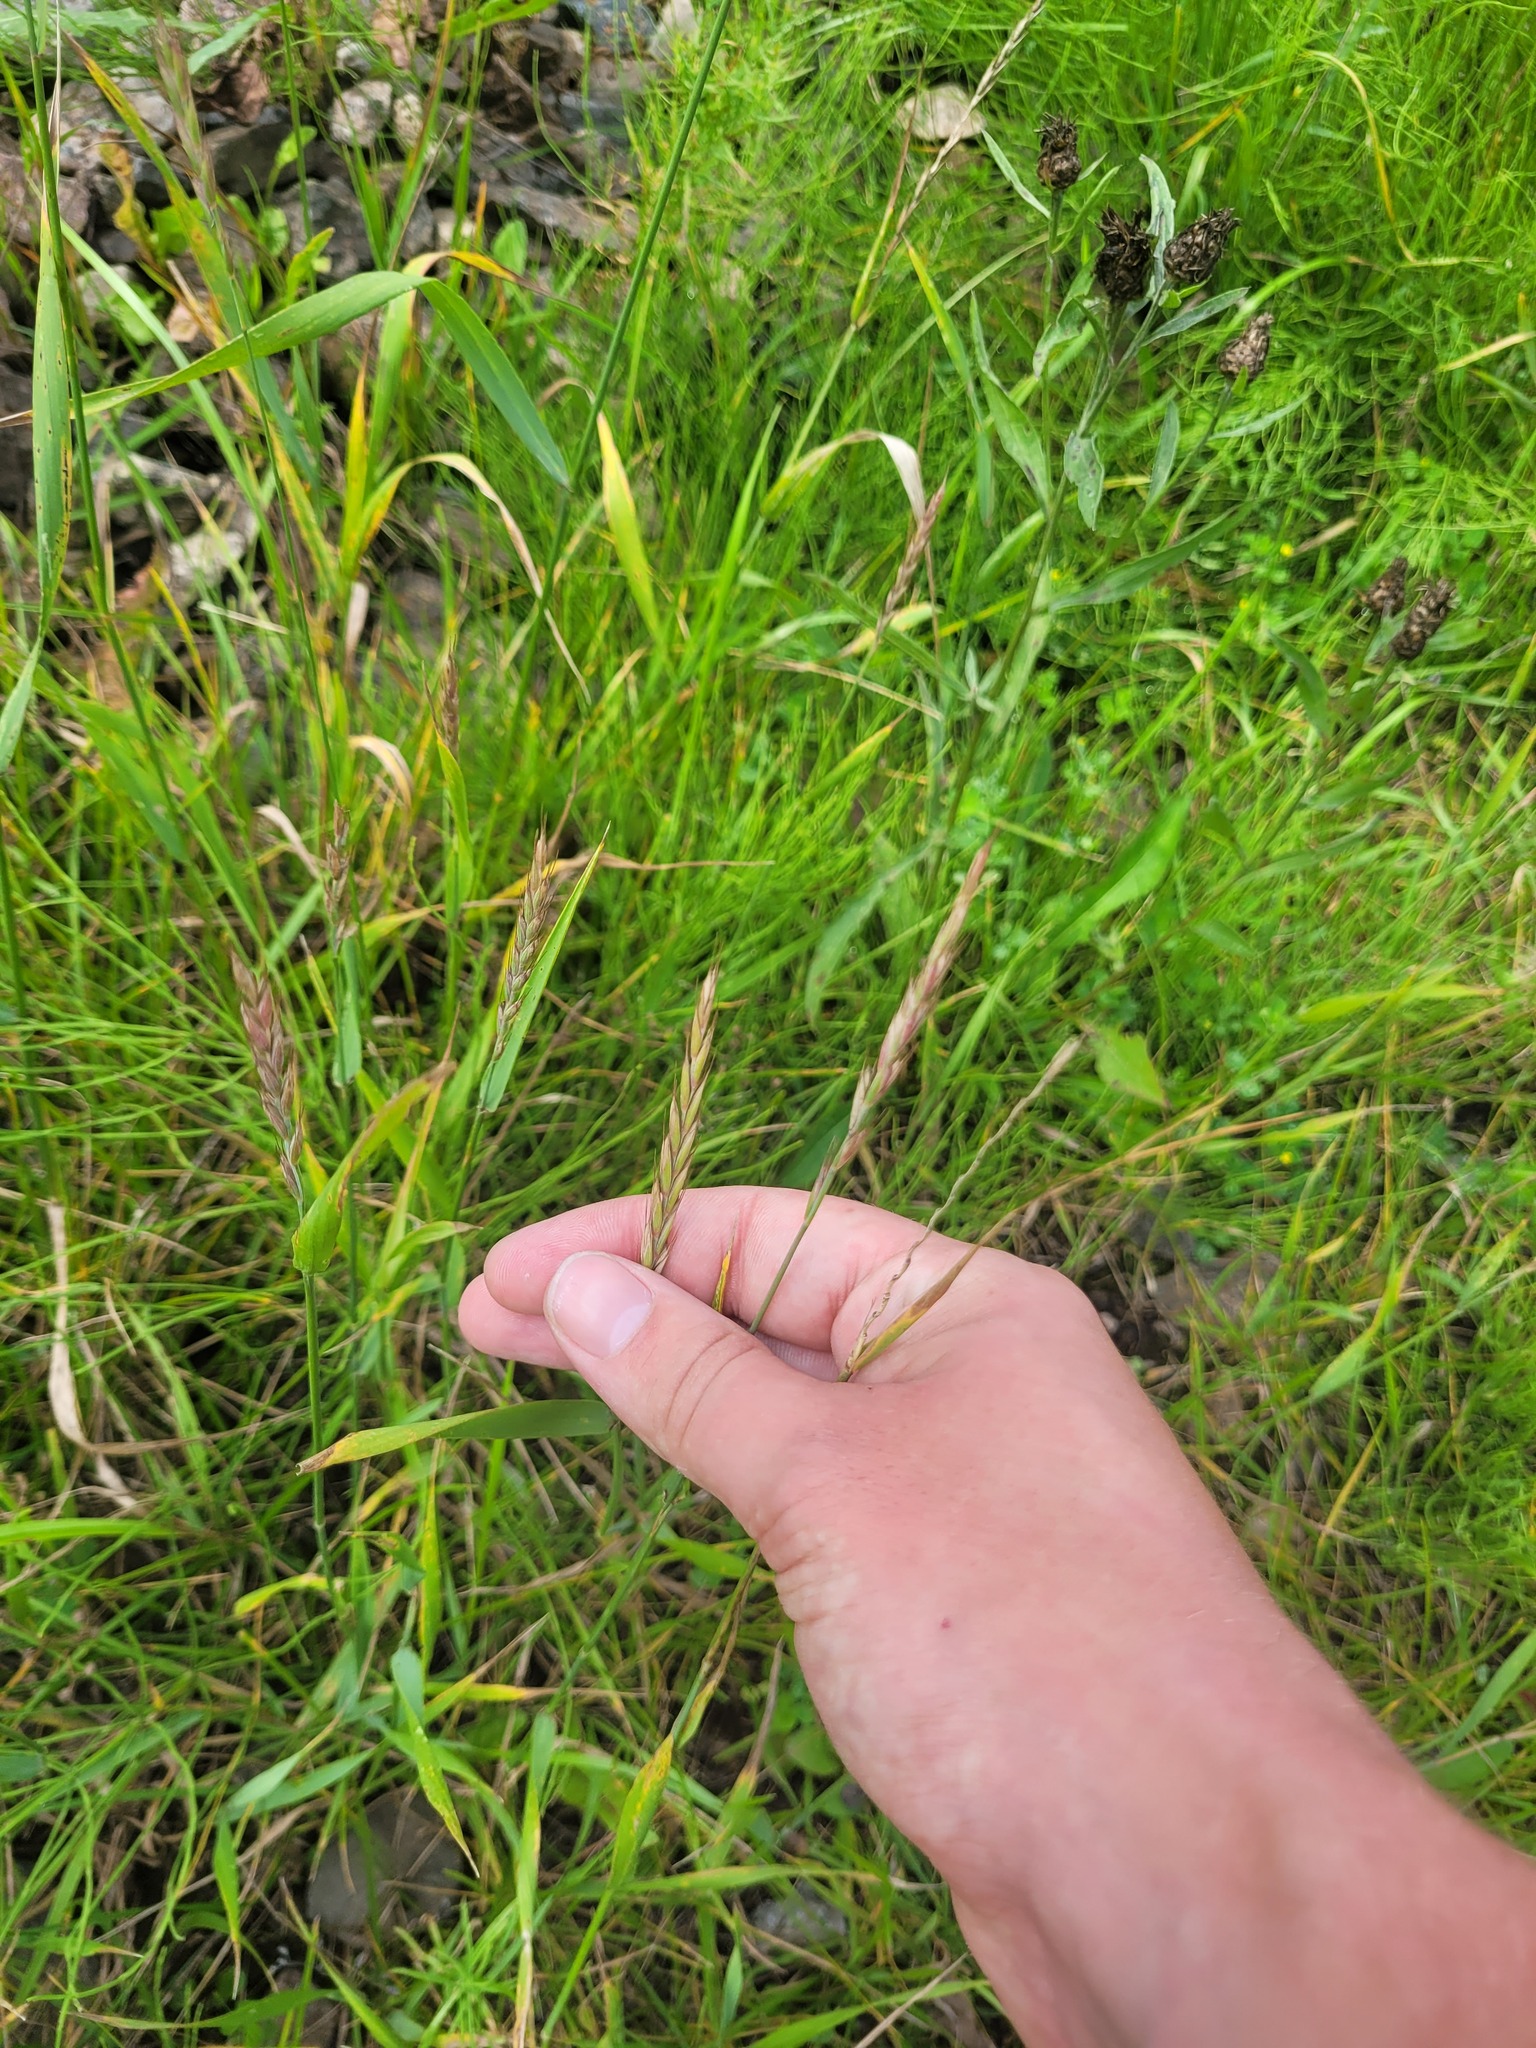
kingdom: Plantae
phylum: Tracheophyta
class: Liliopsida
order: Poales
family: Poaceae
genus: Elymus
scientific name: Elymus repens
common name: Quackgrass
